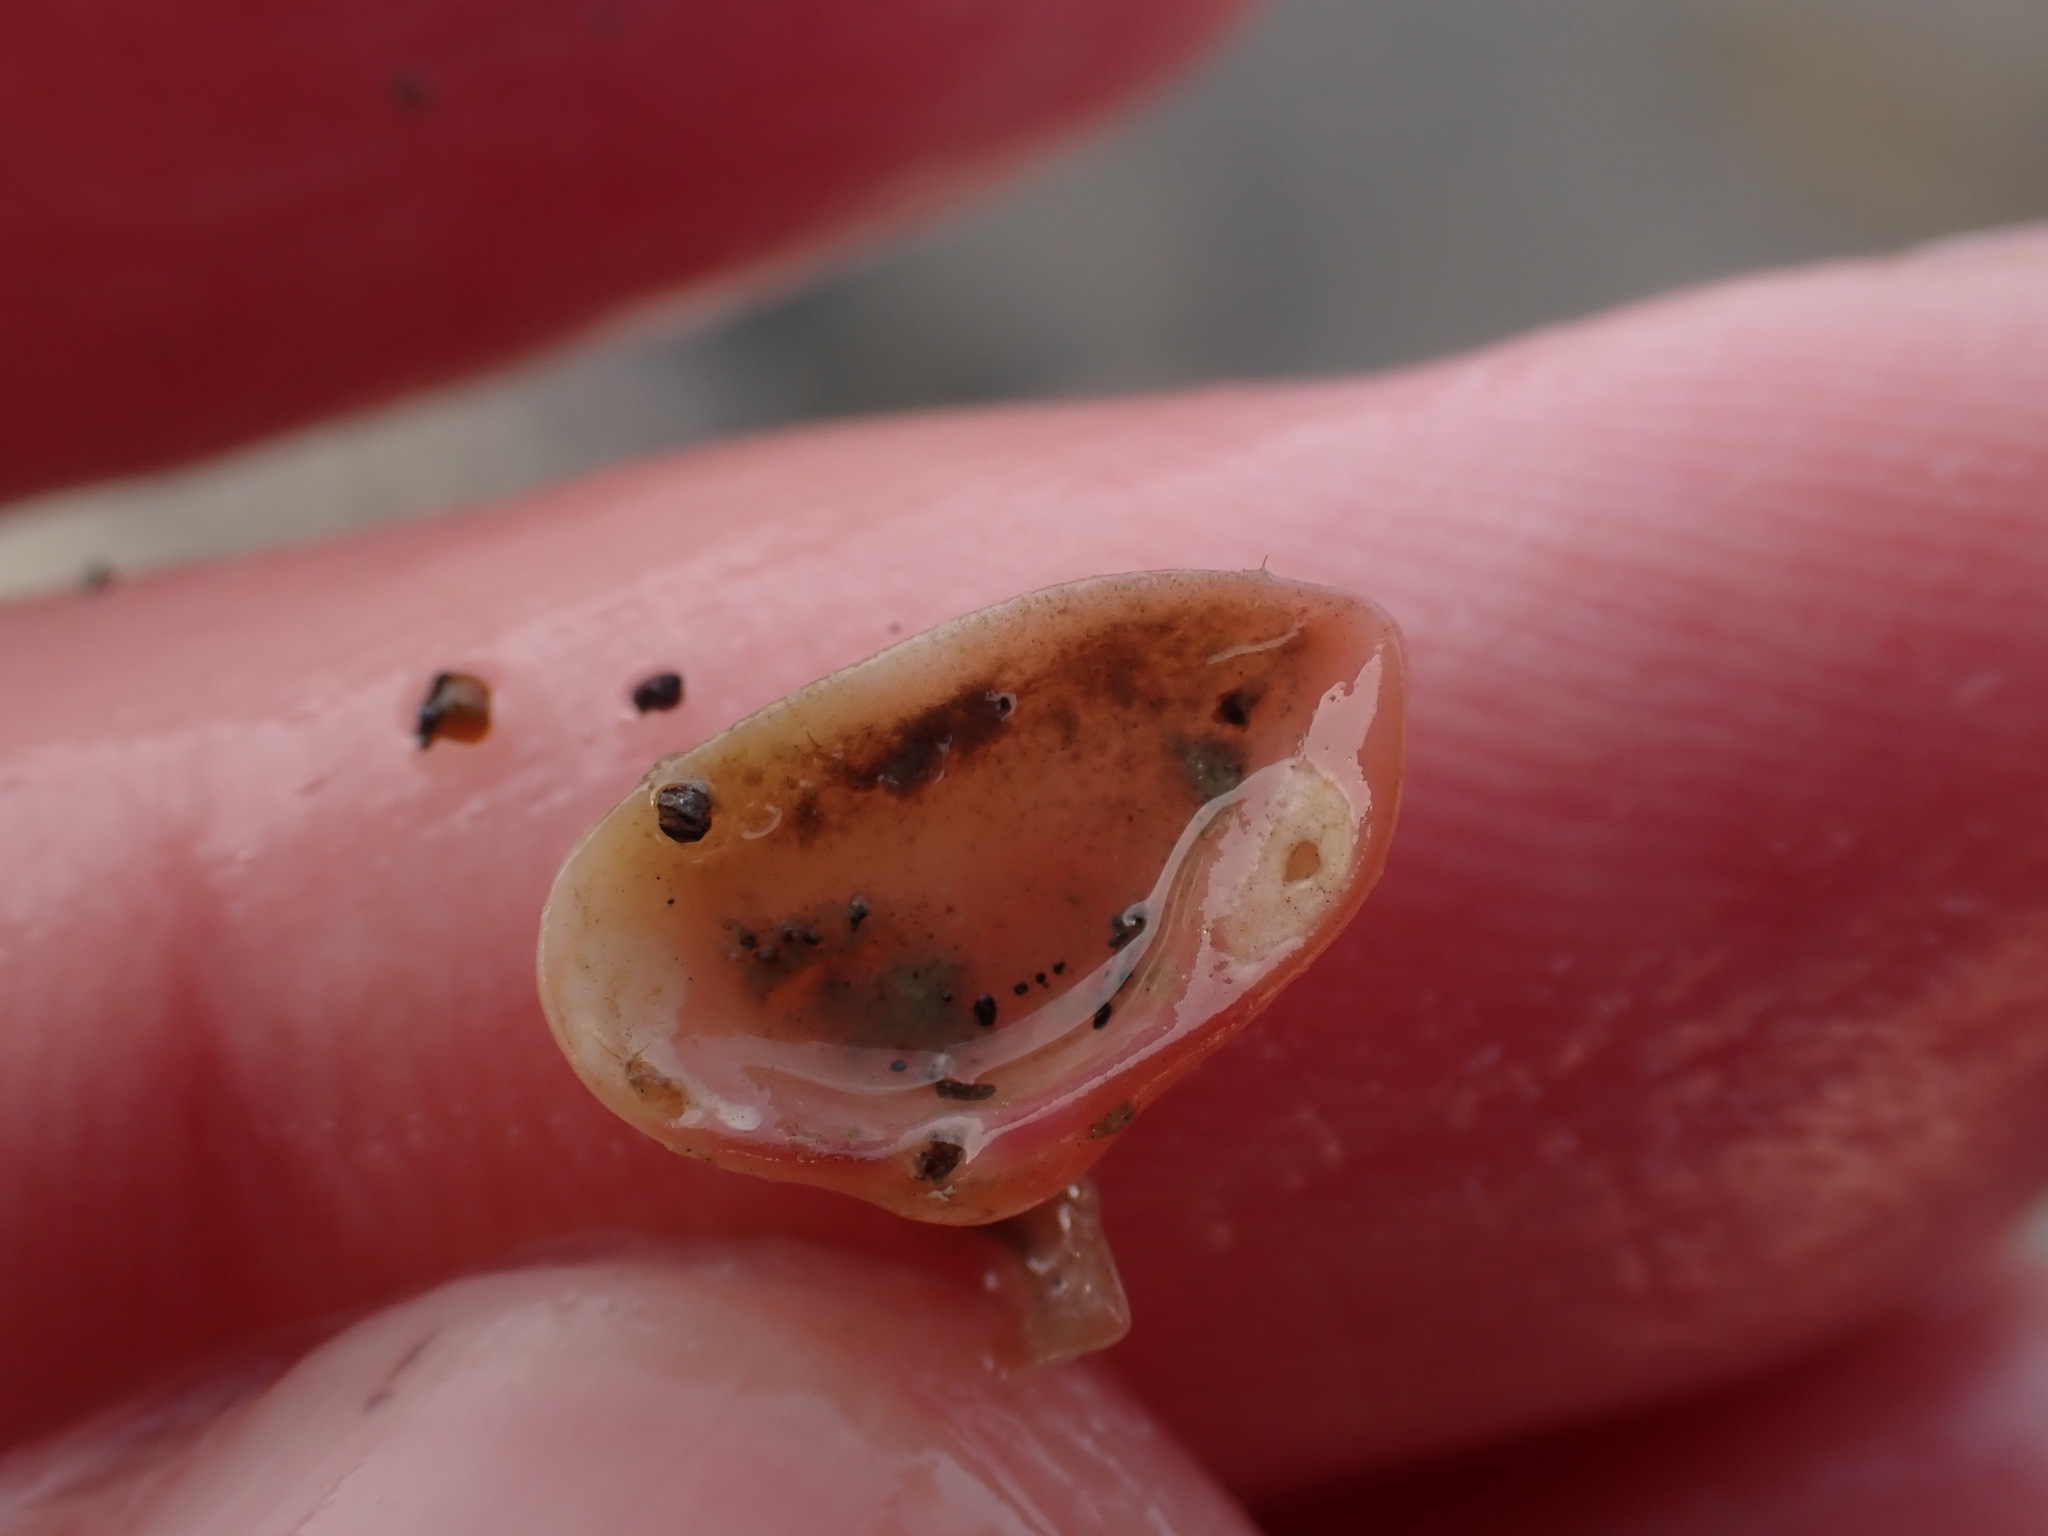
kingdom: Animalia
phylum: Mollusca
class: Bivalvia
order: Myida
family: Corbulidae
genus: Corbula
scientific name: Corbula zelandica
